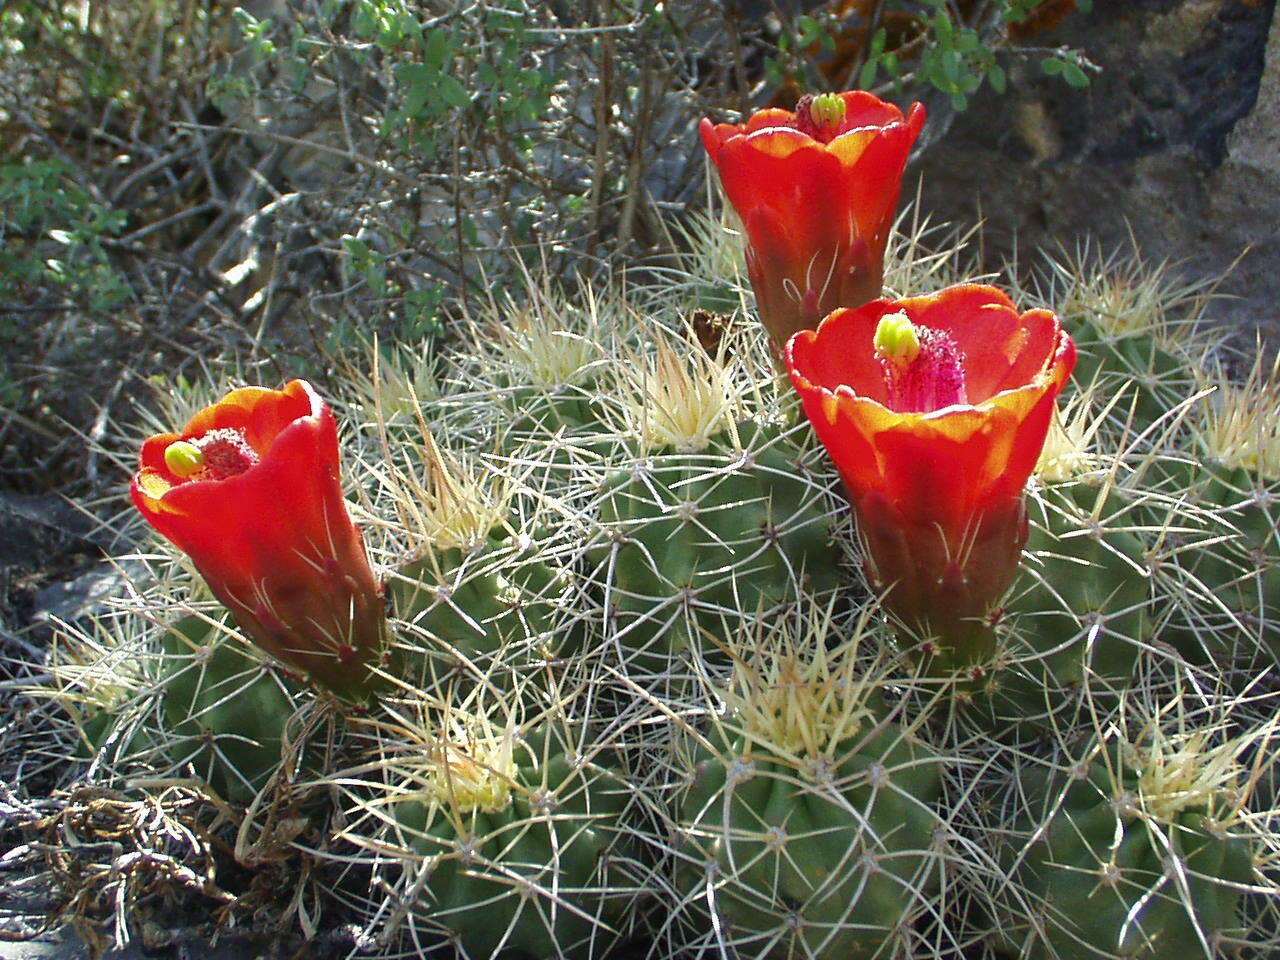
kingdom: Plantae
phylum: Tracheophyta
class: Magnoliopsida
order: Caryophyllales
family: Cactaceae
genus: Echinocereus
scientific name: Echinocereus triglochidiatus
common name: Claretcup hedgehog
